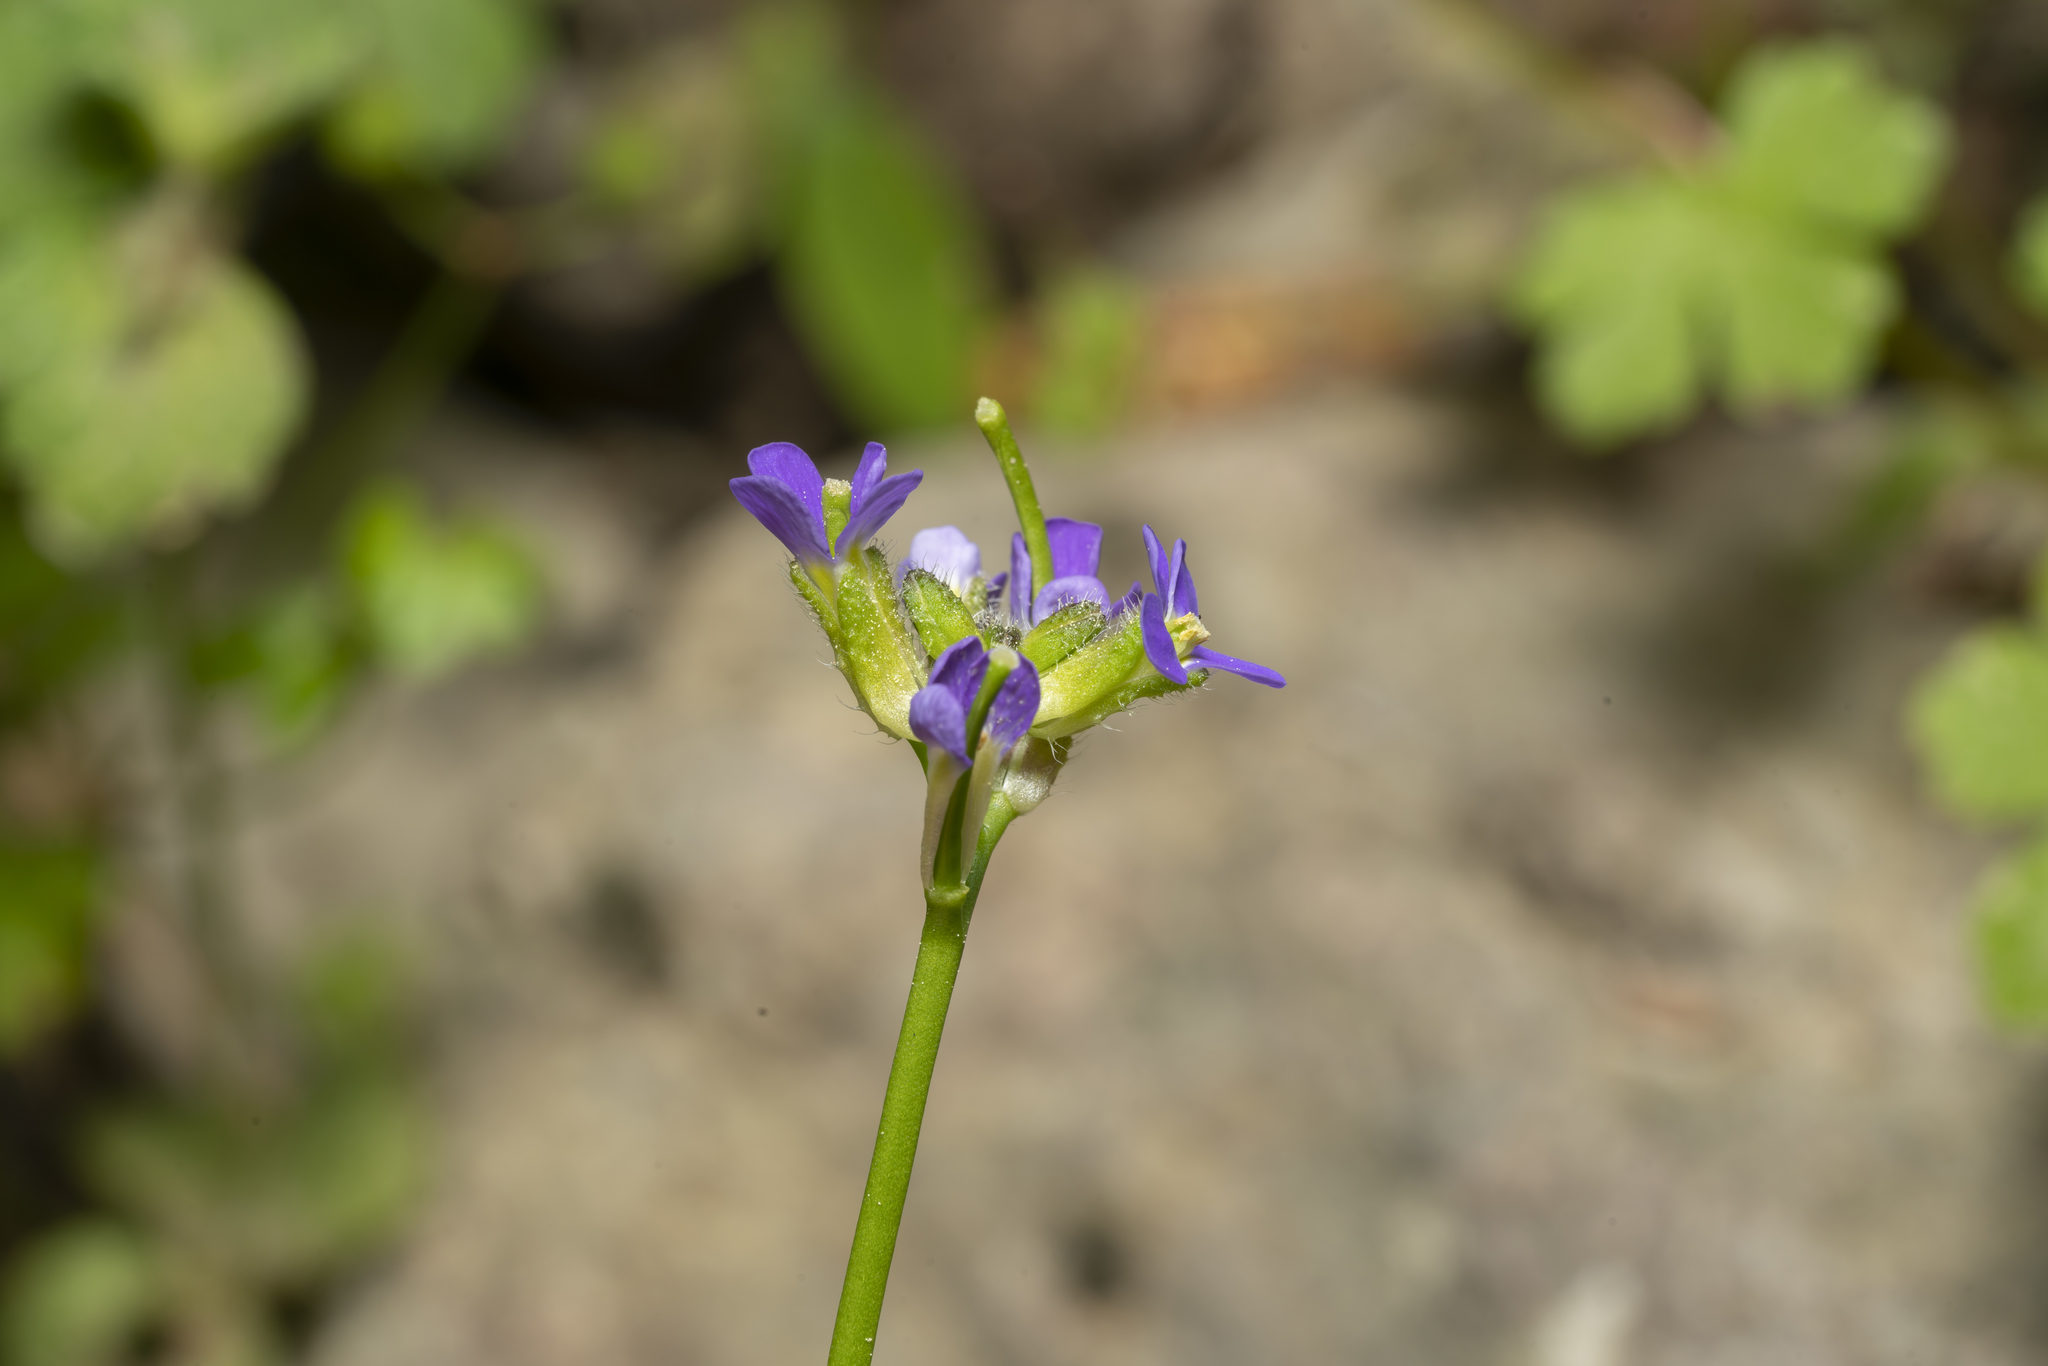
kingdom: Plantae
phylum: Tracheophyta
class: Magnoliopsida
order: Brassicales
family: Brassicaceae
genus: Arabis
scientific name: Arabis verna
